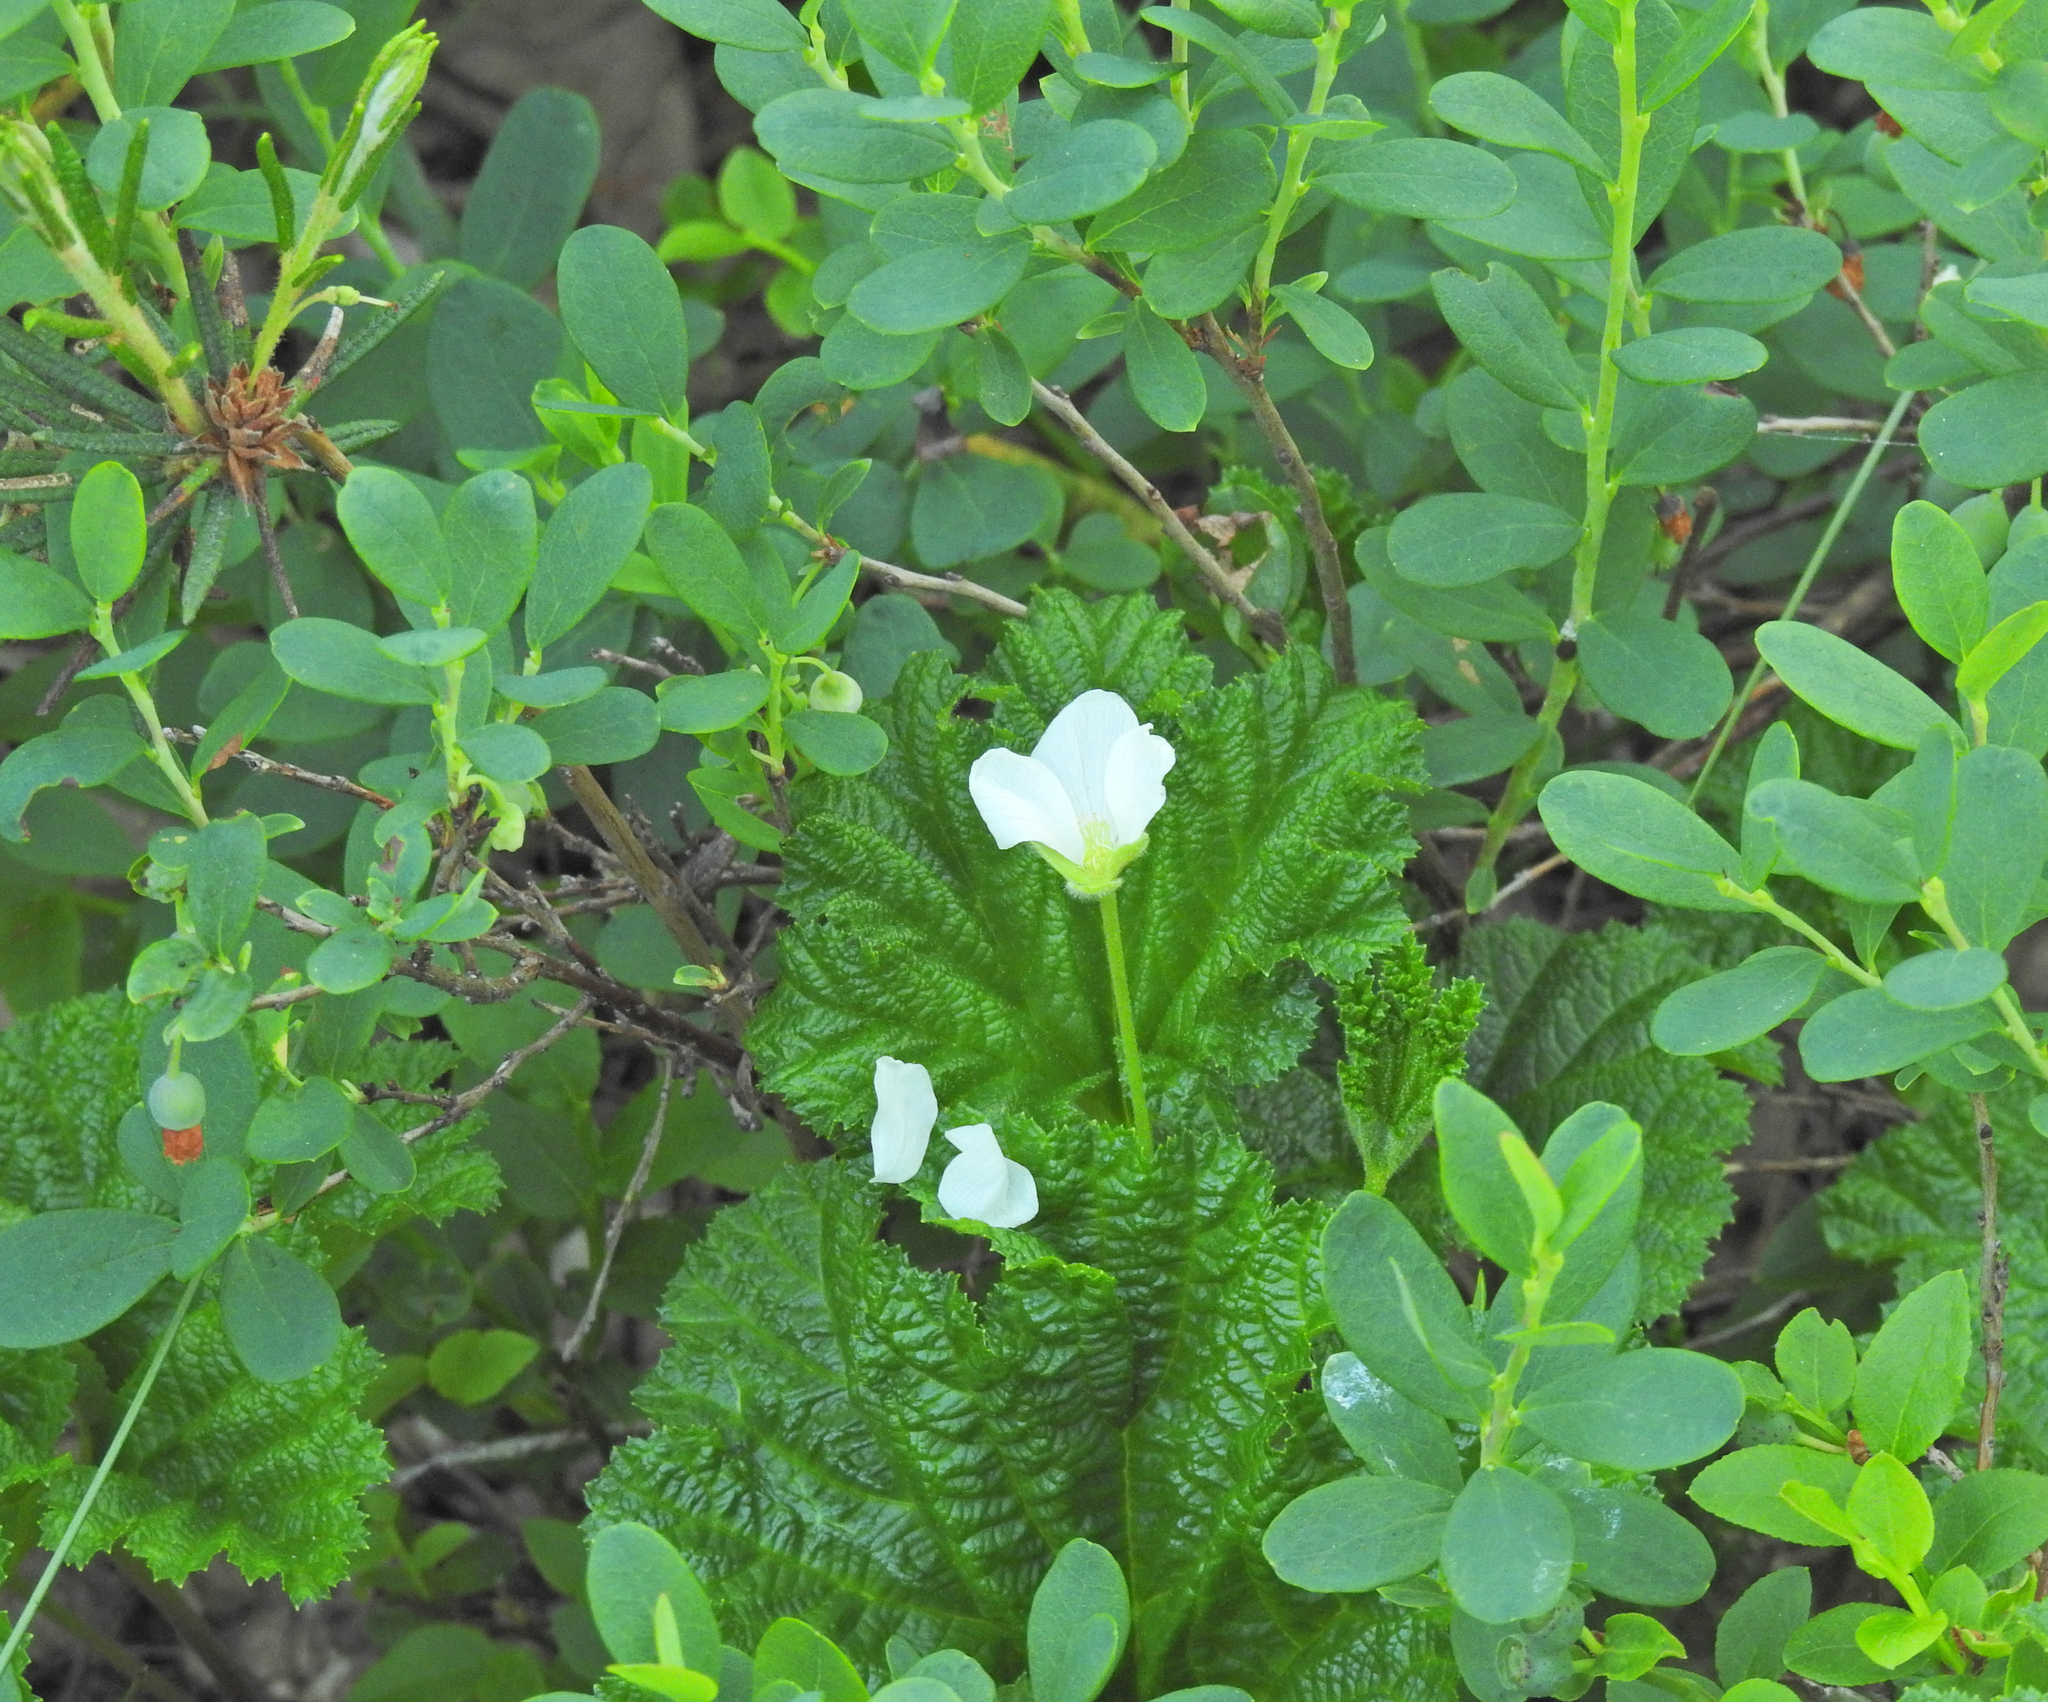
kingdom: Plantae
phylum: Tracheophyta
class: Magnoliopsida
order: Rosales
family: Rosaceae
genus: Rubus
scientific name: Rubus chamaemorus
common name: Cloudberry
